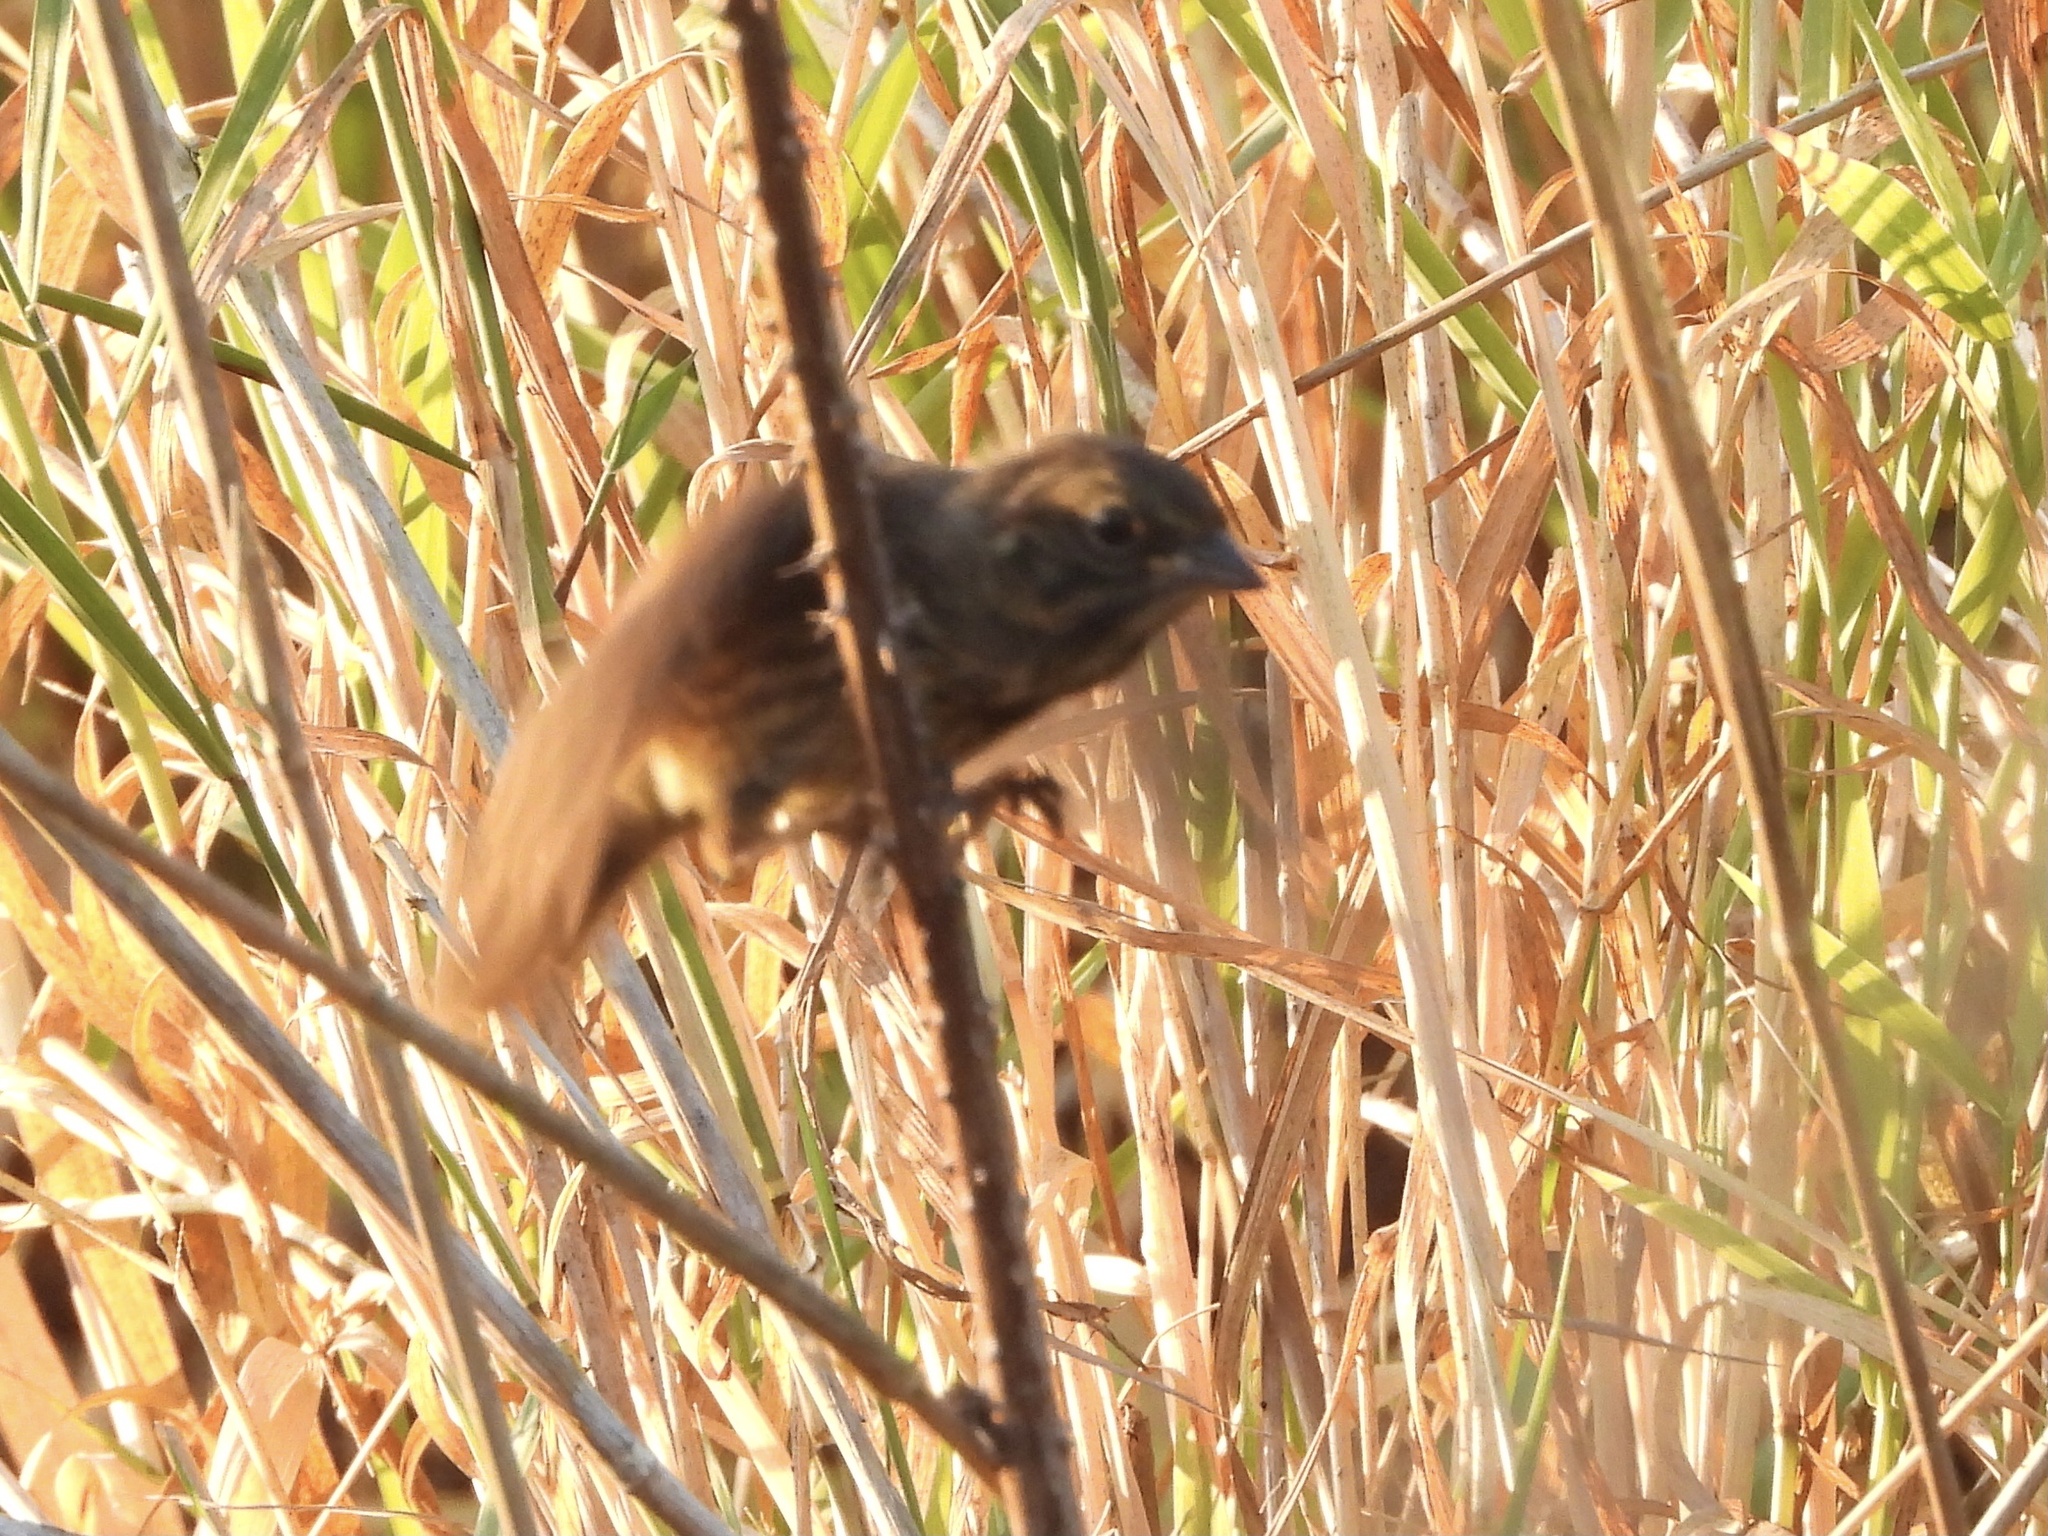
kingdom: Animalia
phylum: Chordata
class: Aves
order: Passeriformes
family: Passerellidae
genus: Melospiza
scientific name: Melospiza melodia
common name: Song sparrow
